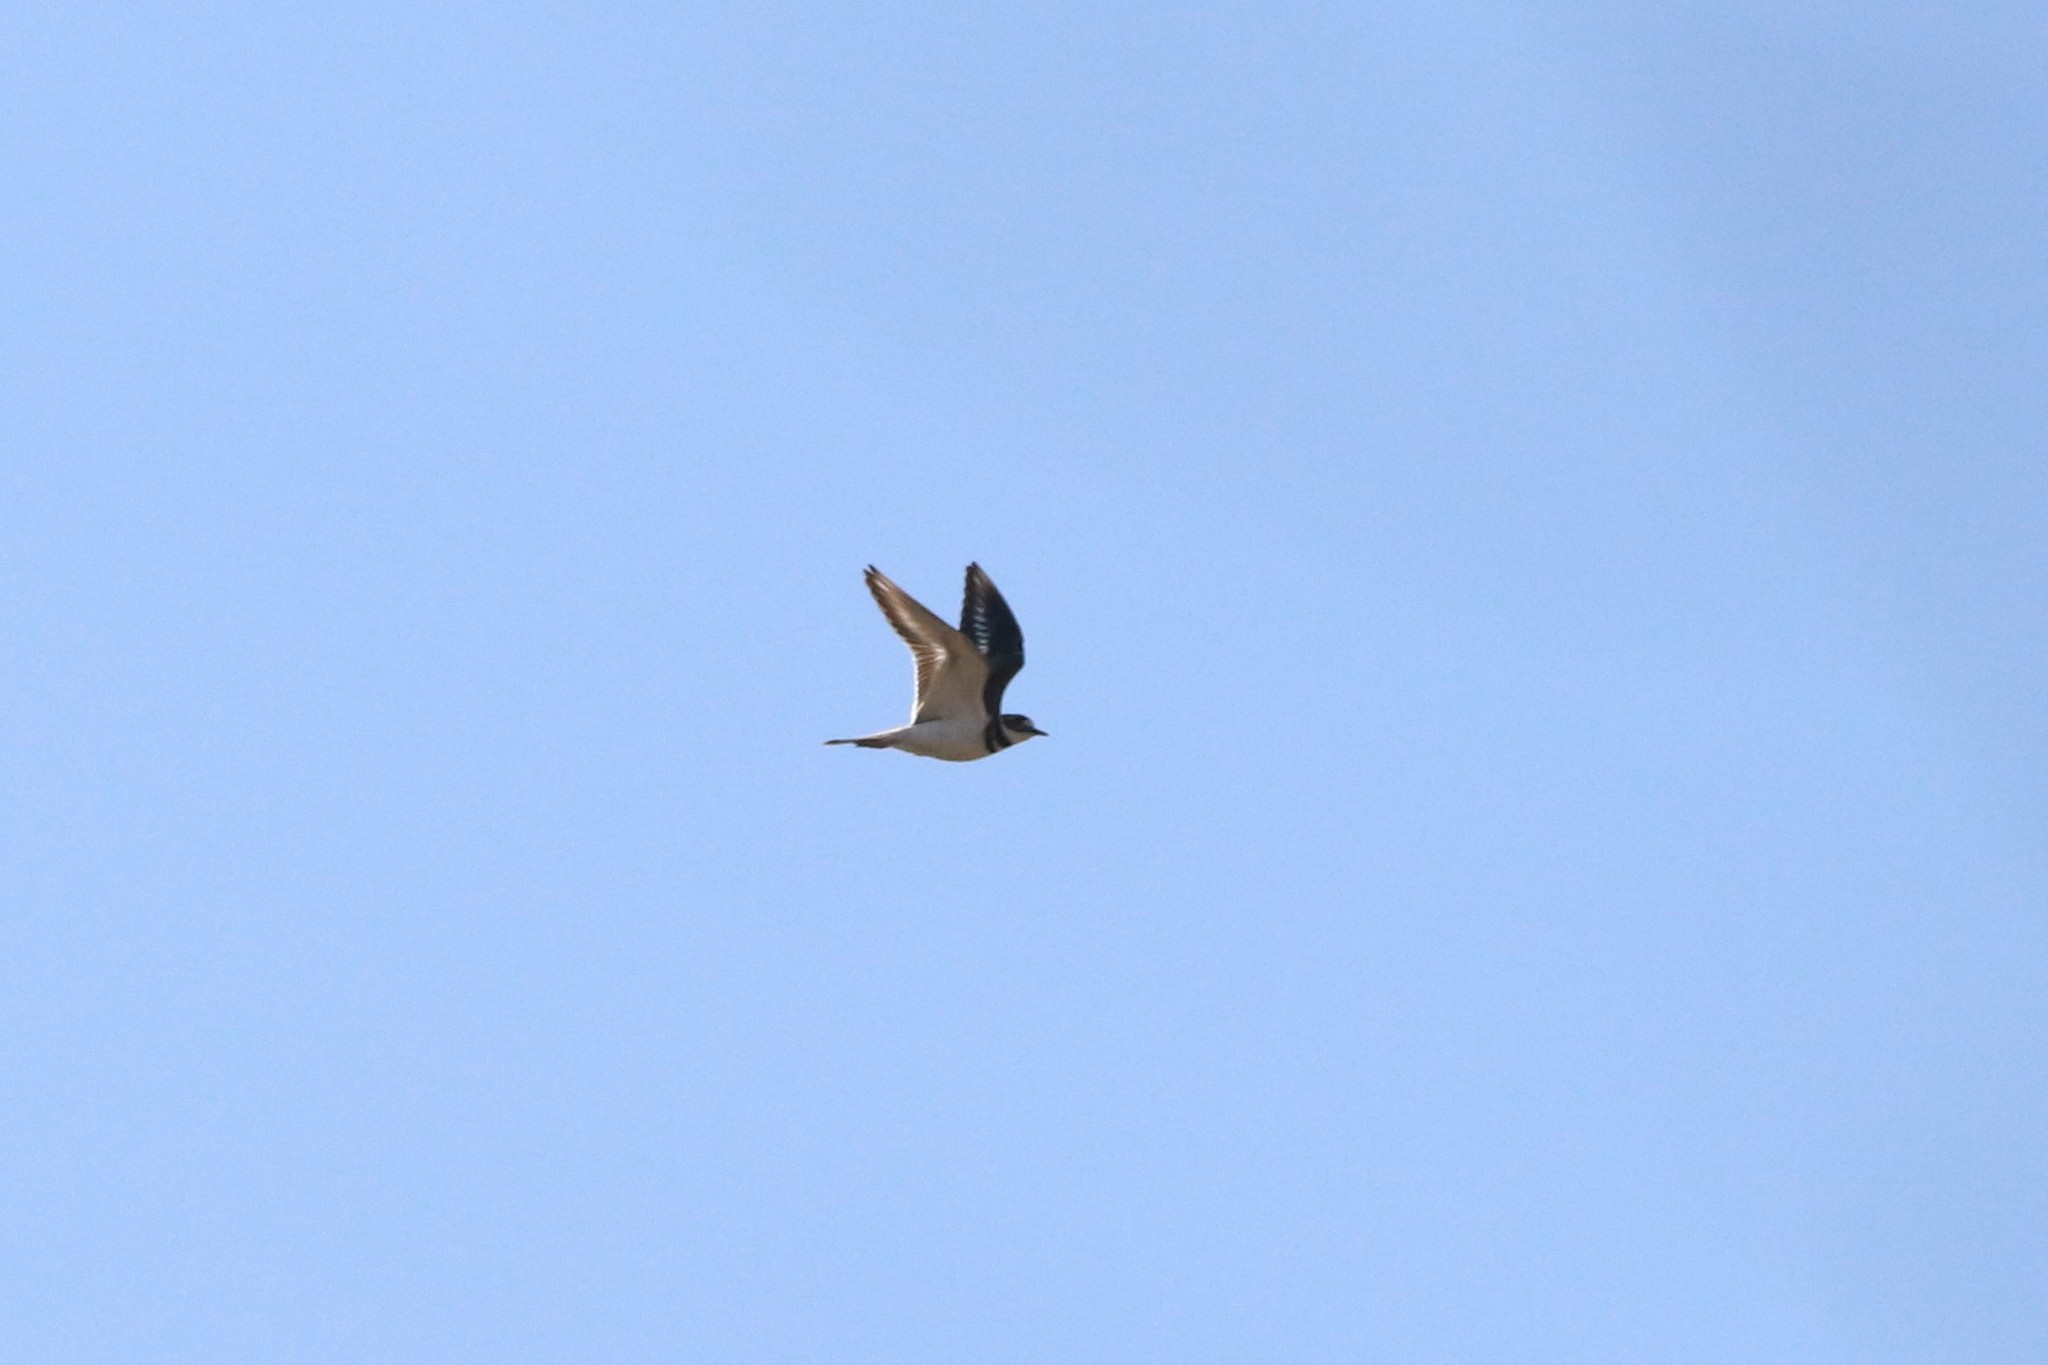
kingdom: Animalia
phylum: Chordata
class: Aves
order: Charadriiformes
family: Charadriidae
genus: Charadrius
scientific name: Charadrius vociferus
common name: Killdeer
